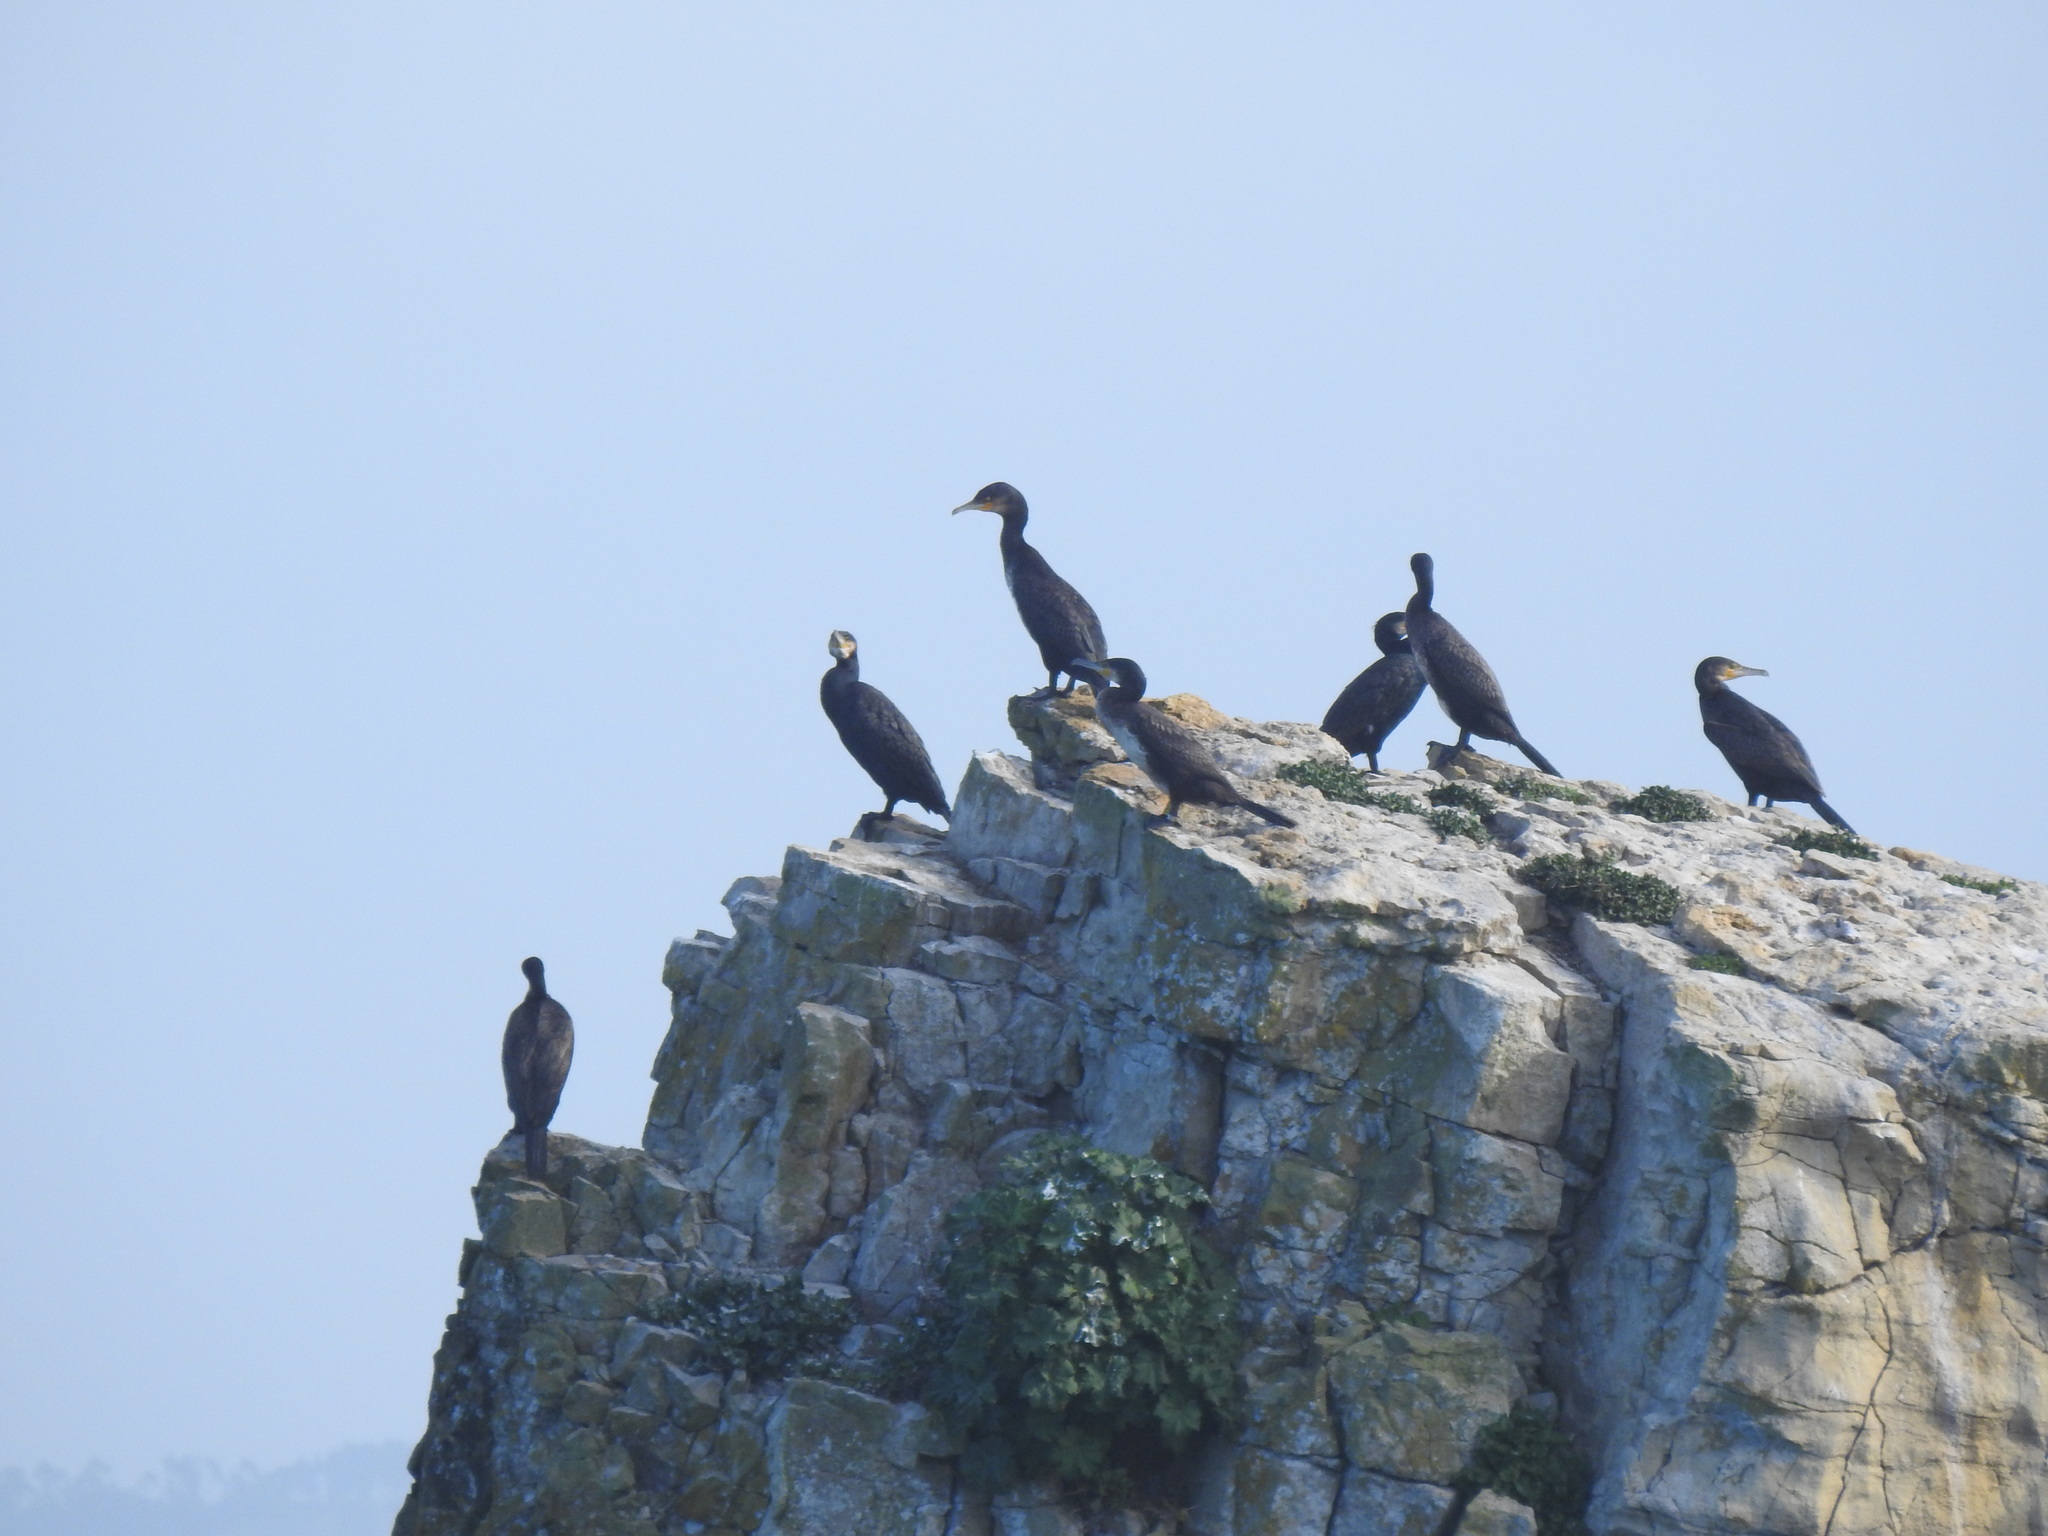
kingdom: Animalia
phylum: Chordata
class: Aves
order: Suliformes
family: Phalacrocoracidae
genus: Phalacrocorax
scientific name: Phalacrocorax carbo
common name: Great cormorant
